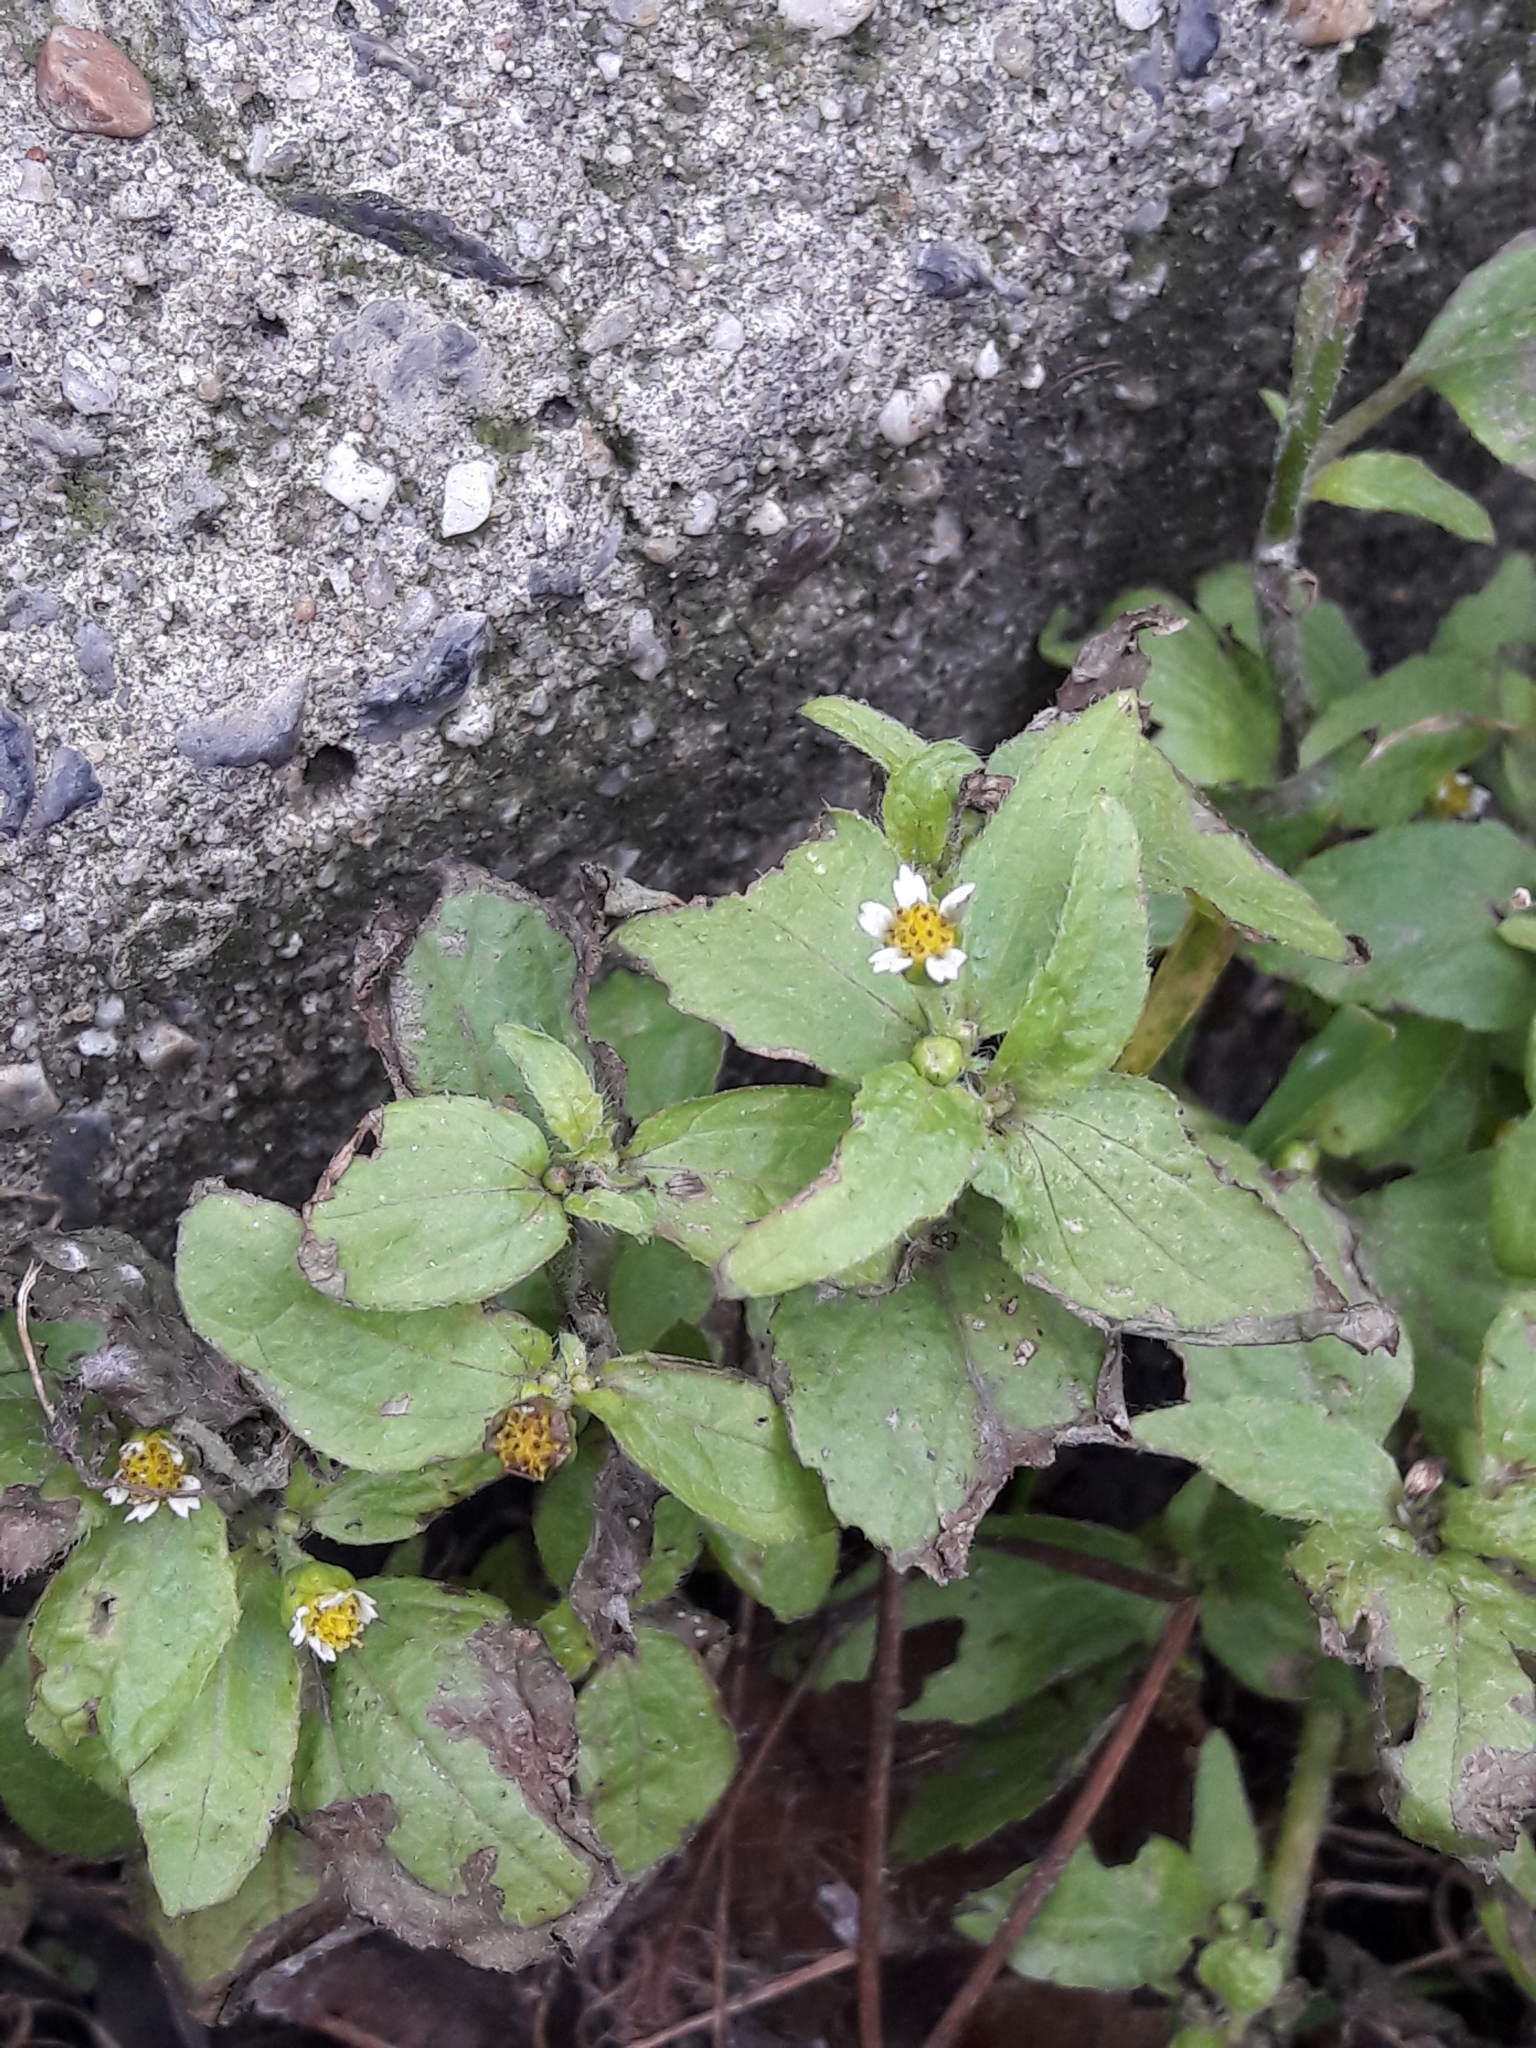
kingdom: Plantae
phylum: Tracheophyta
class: Magnoliopsida
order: Asterales
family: Asteraceae
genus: Galinsoga
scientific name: Galinsoga quadriradiata
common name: Shaggy soldier
